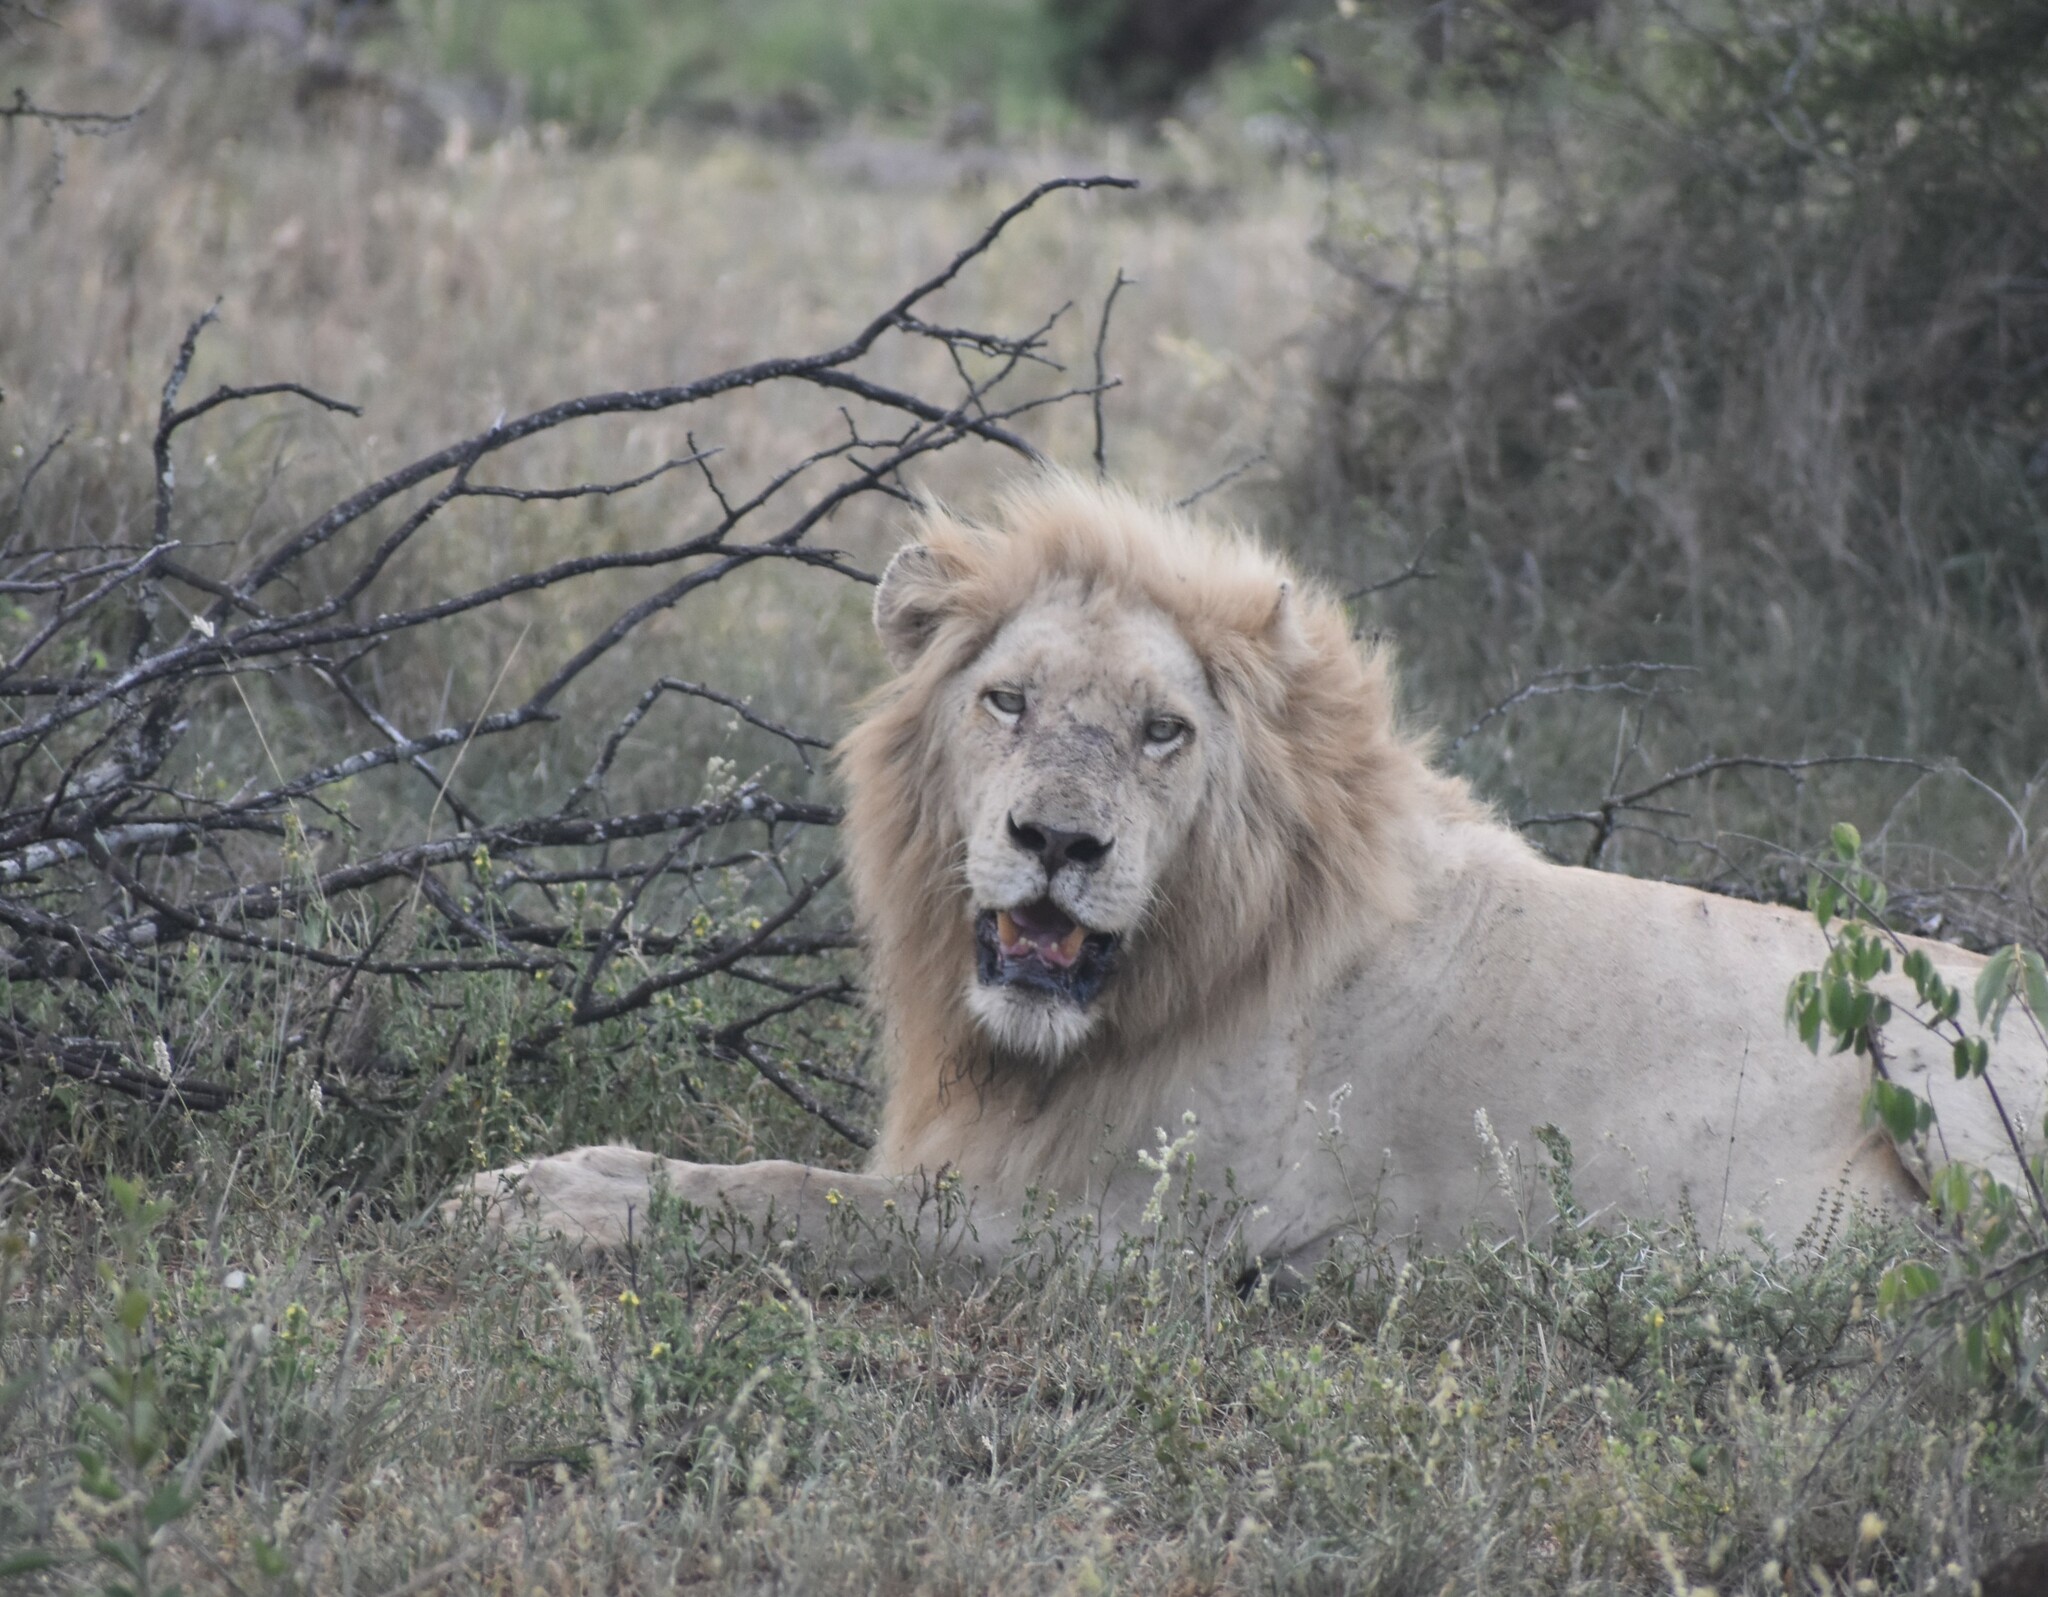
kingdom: Animalia
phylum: Chordata
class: Mammalia
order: Carnivora
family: Felidae
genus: Panthera
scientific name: Panthera leo
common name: Lion
